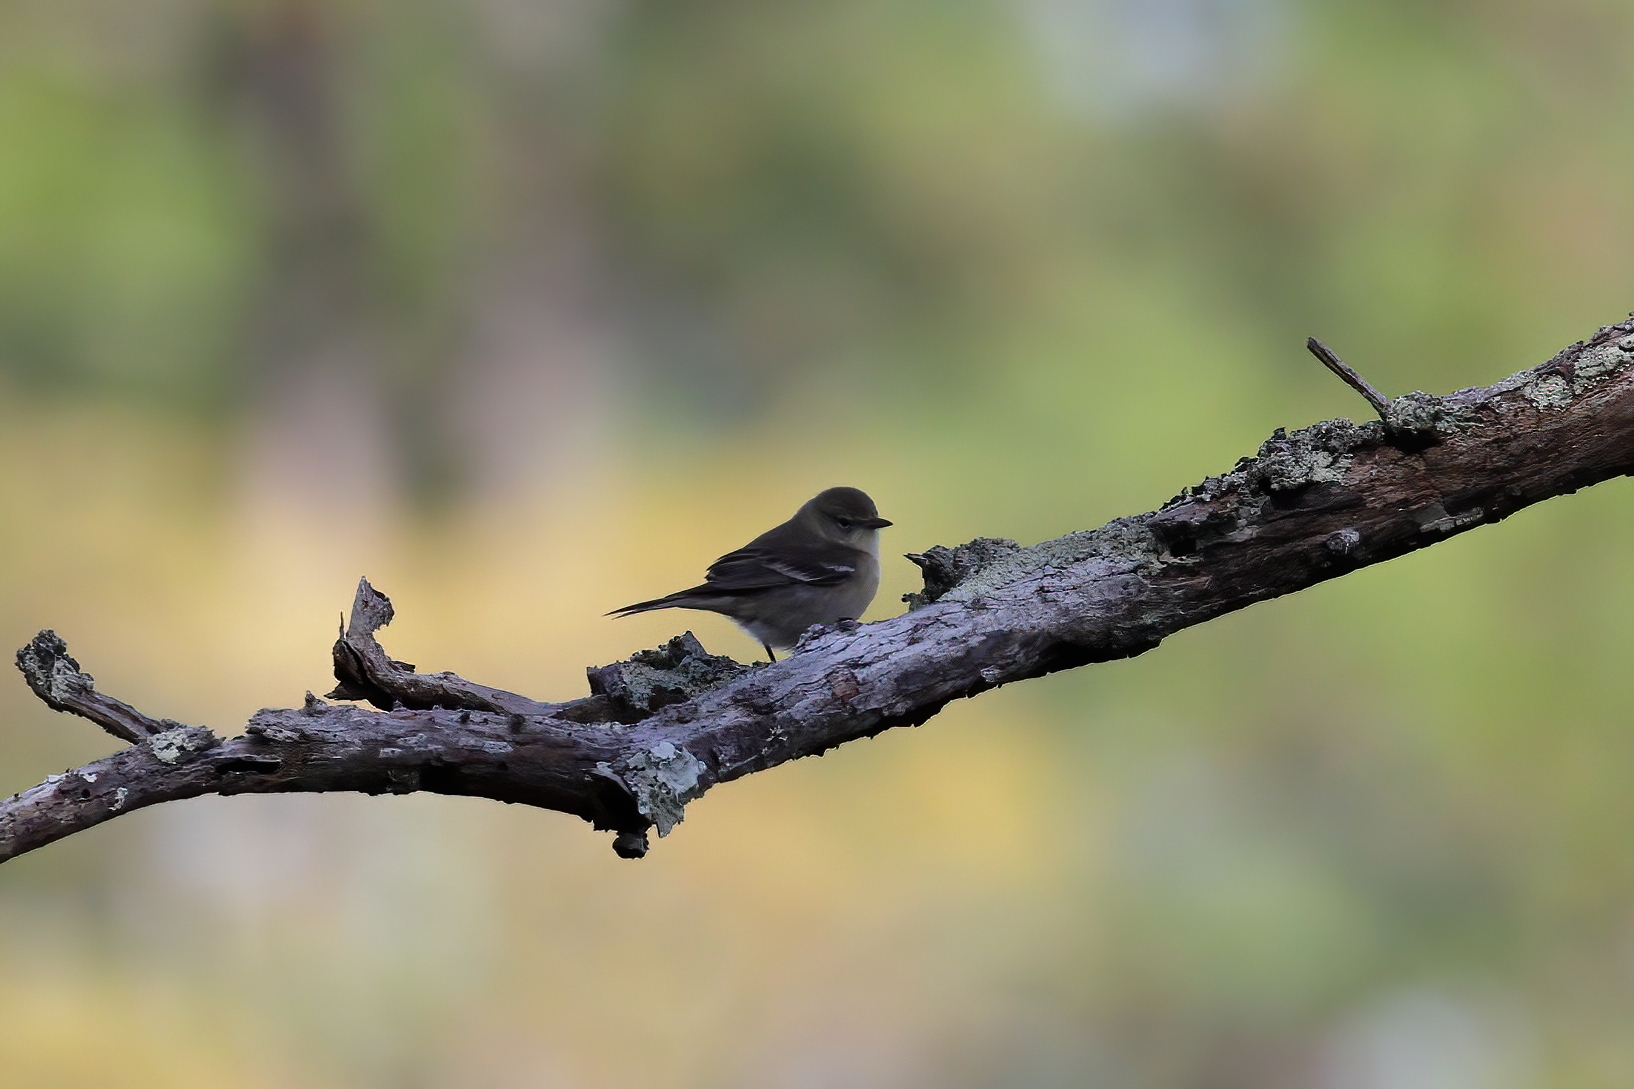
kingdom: Animalia
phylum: Chordata
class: Aves
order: Passeriformes
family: Parulidae
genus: Setophaga
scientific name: Setophaga pinus
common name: Pine warbler
